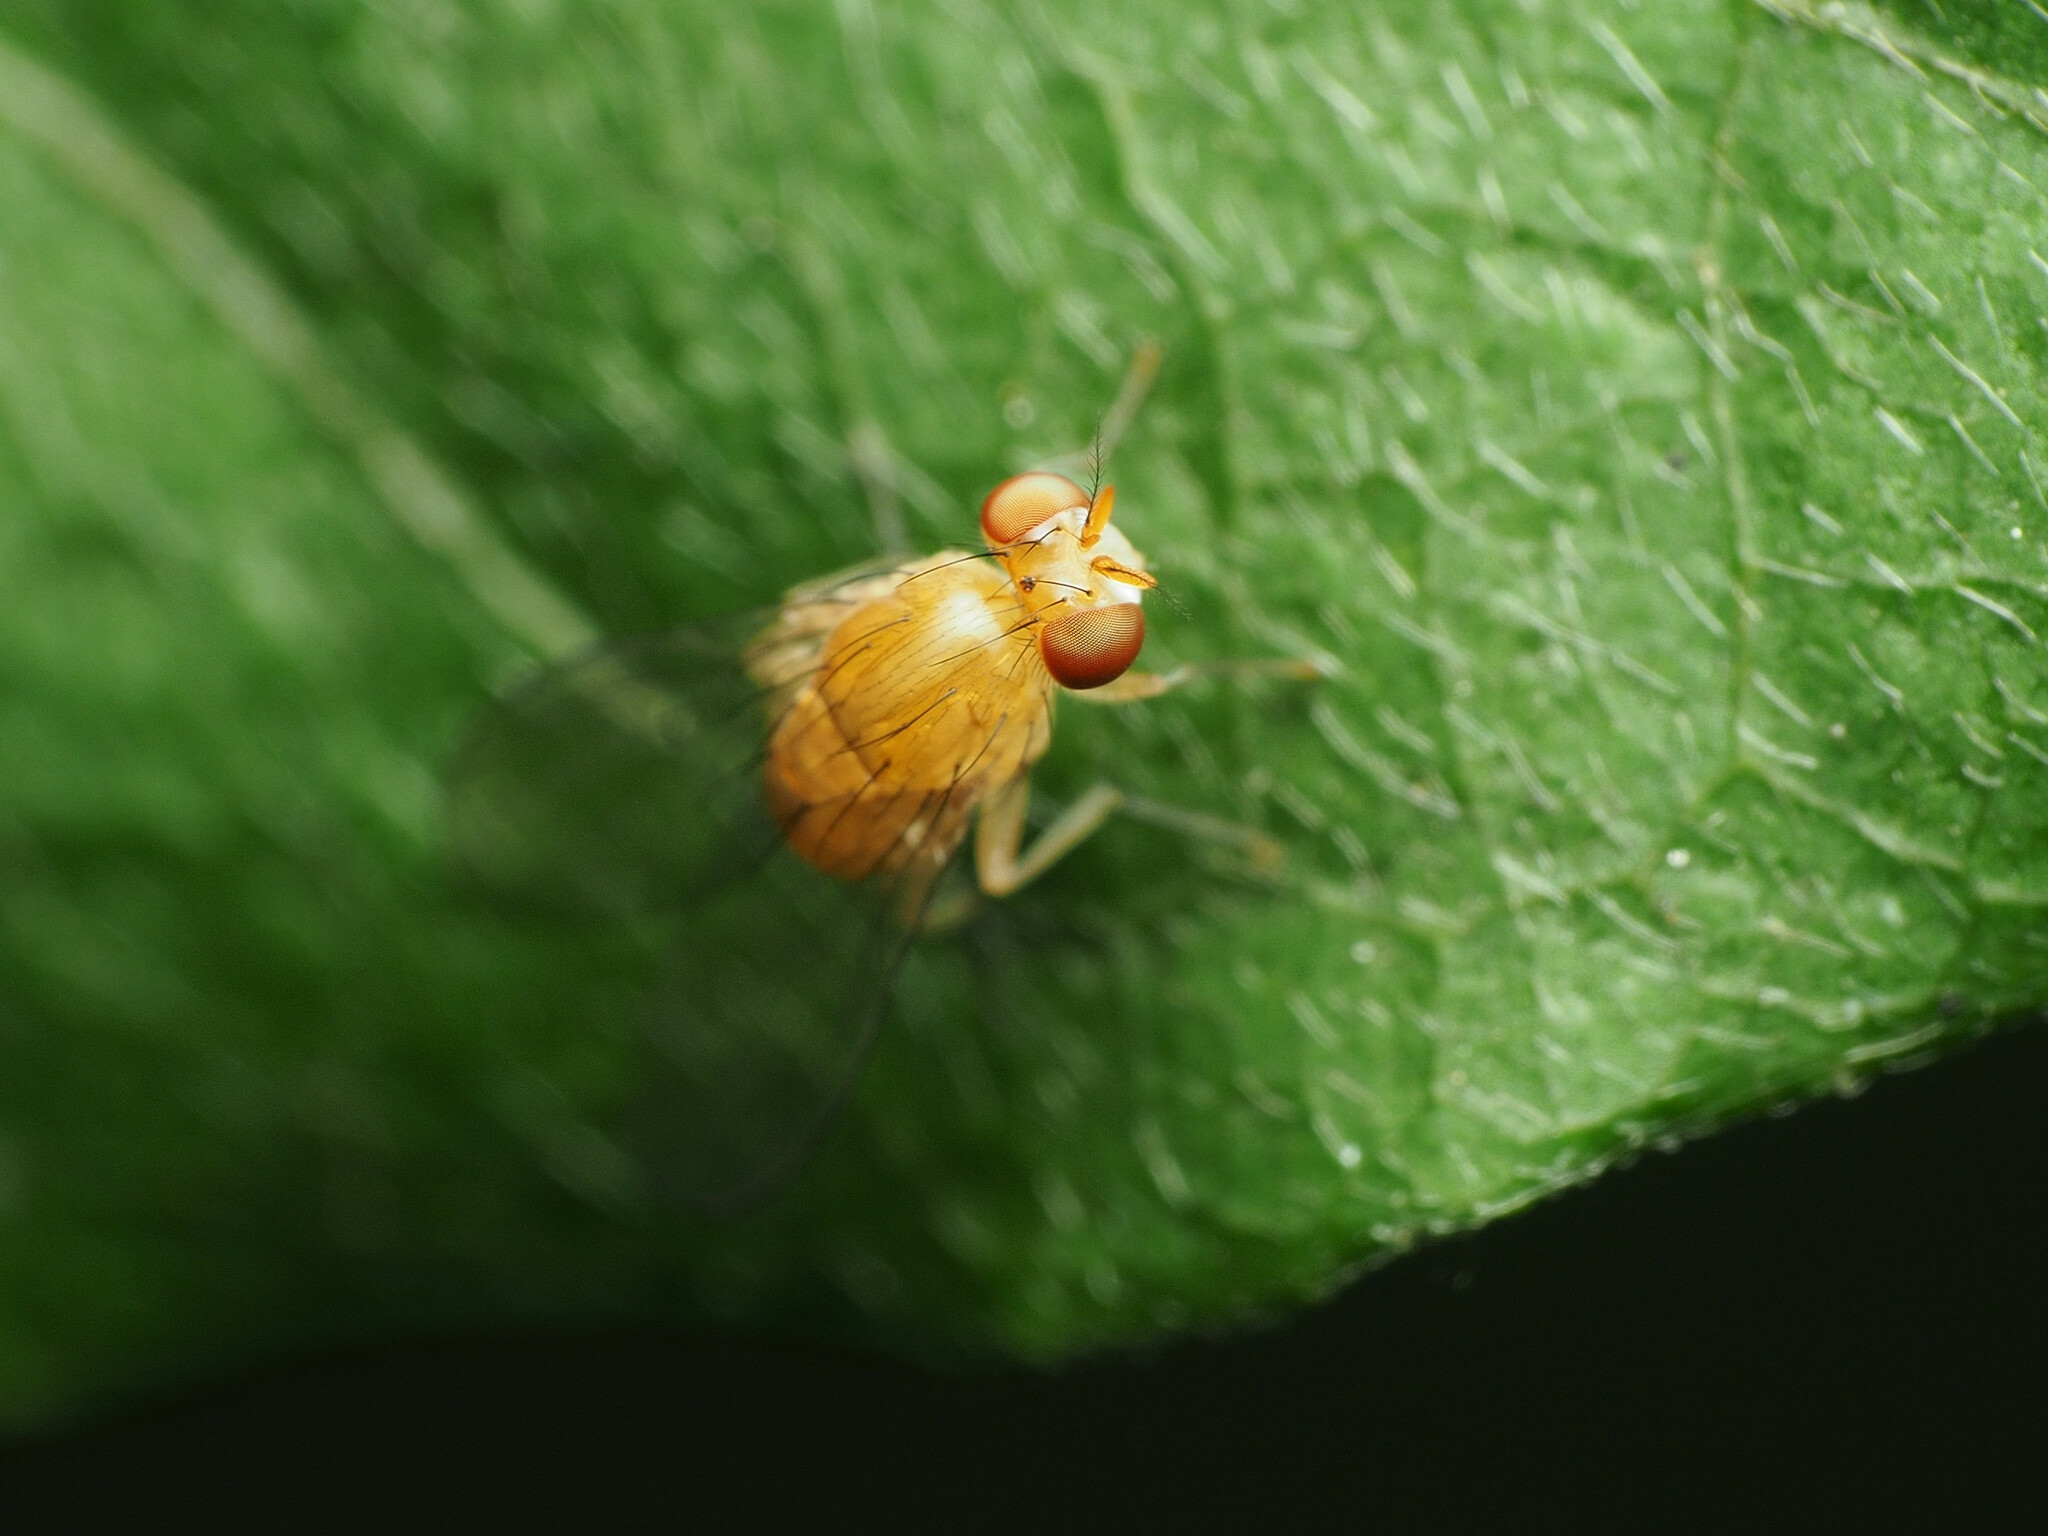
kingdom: Animalia
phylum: Arthropoda
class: Insecta
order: Diptera
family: Lauxaniidae
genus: Neogriphoneura
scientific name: Neogriphoneura sordida
